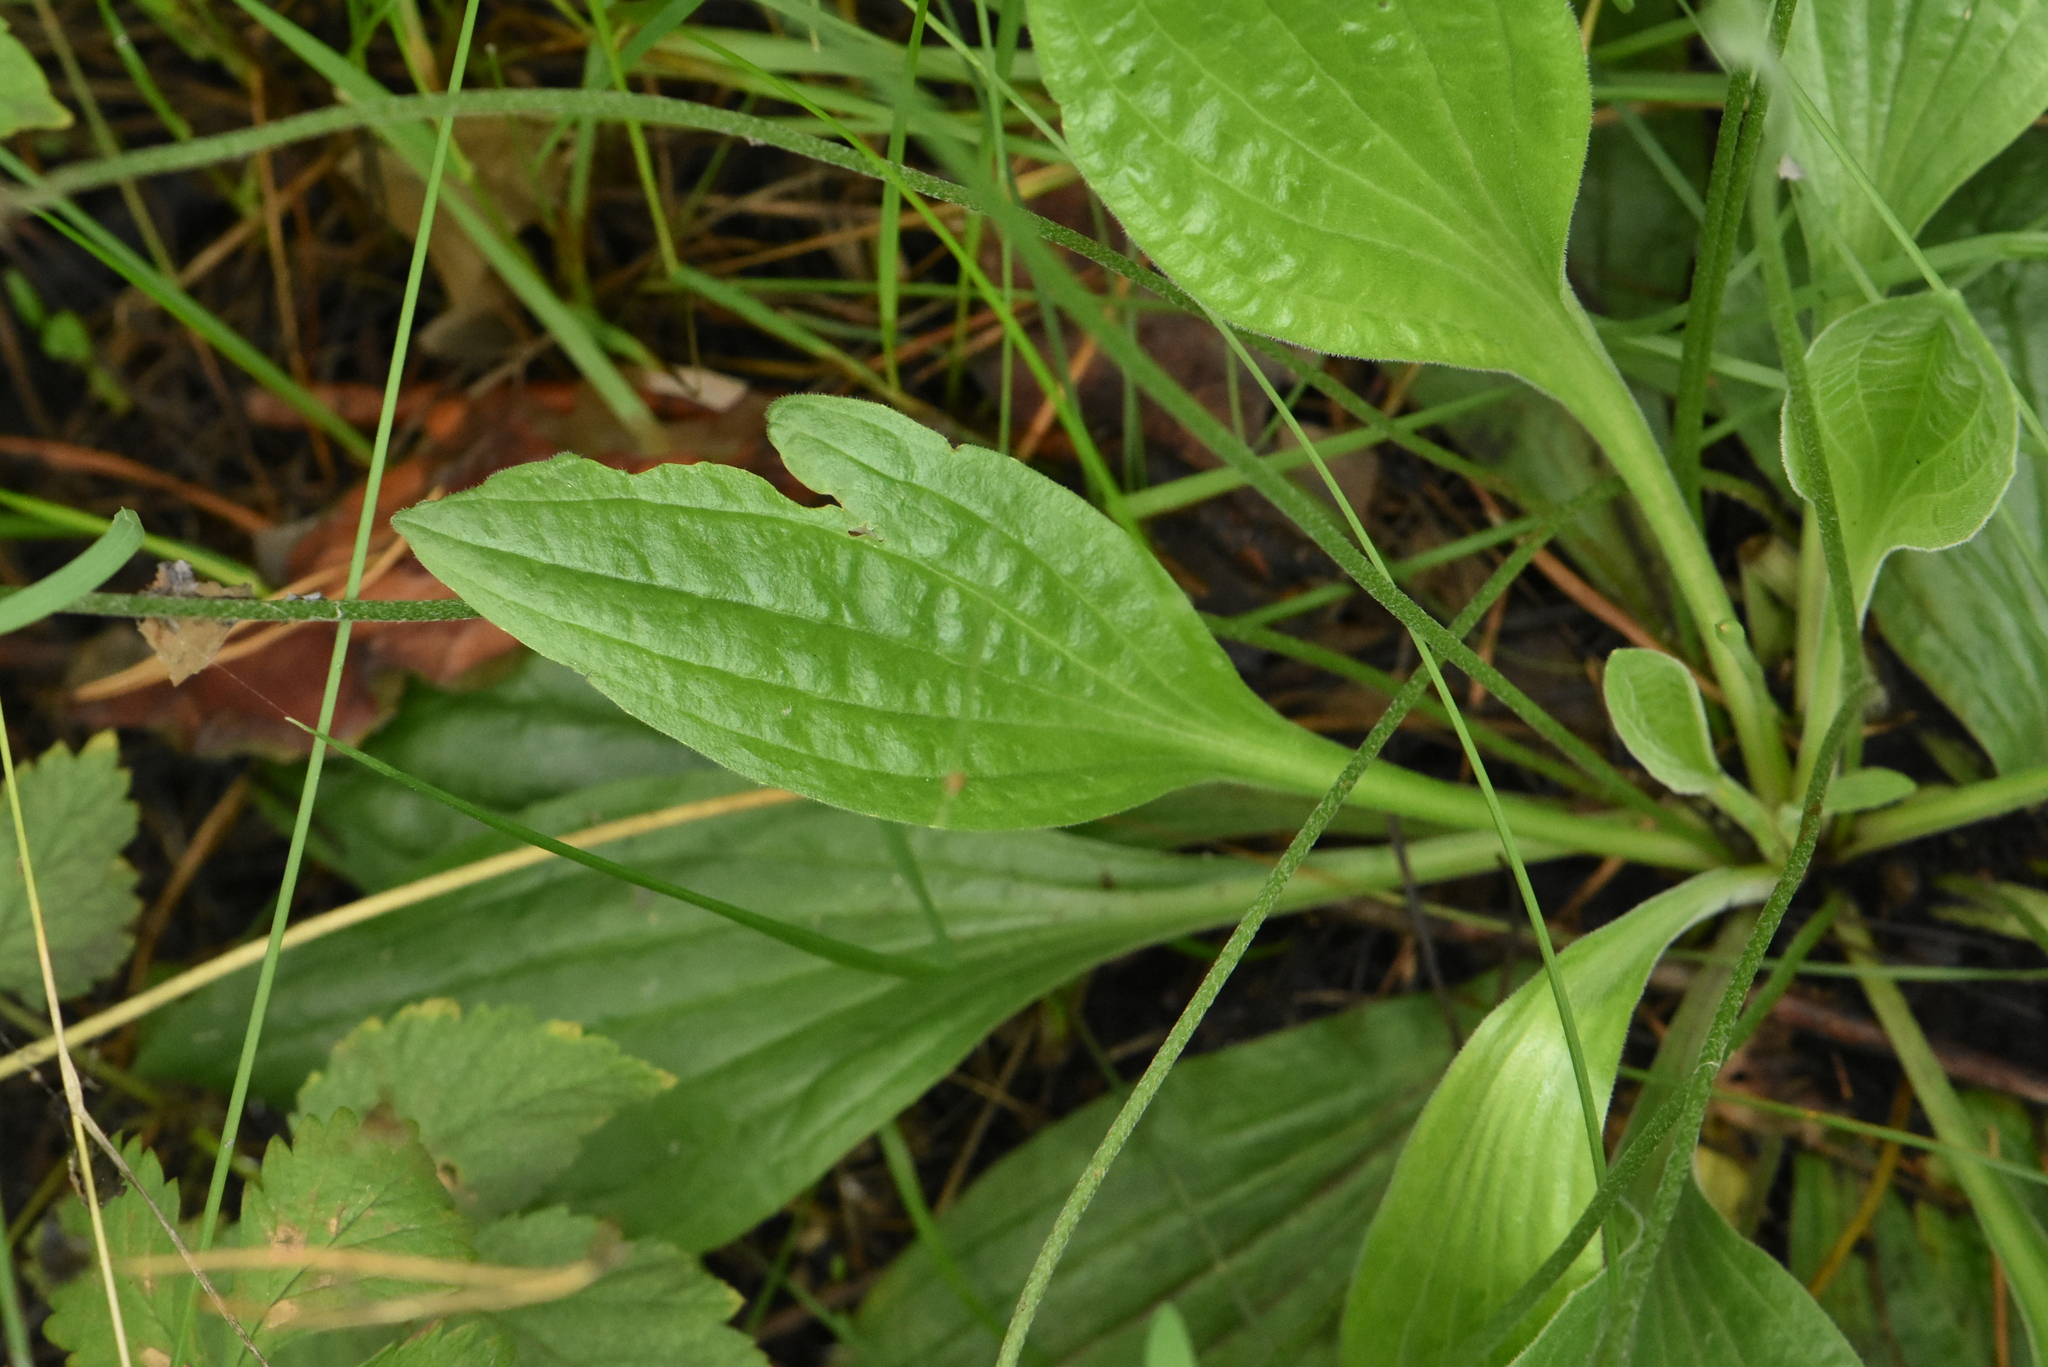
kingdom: Plantae
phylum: Tracheophyta
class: Magnoliopsida
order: Lamiales
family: Plantaginaceae
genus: Plantago
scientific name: Plantago urvillei
